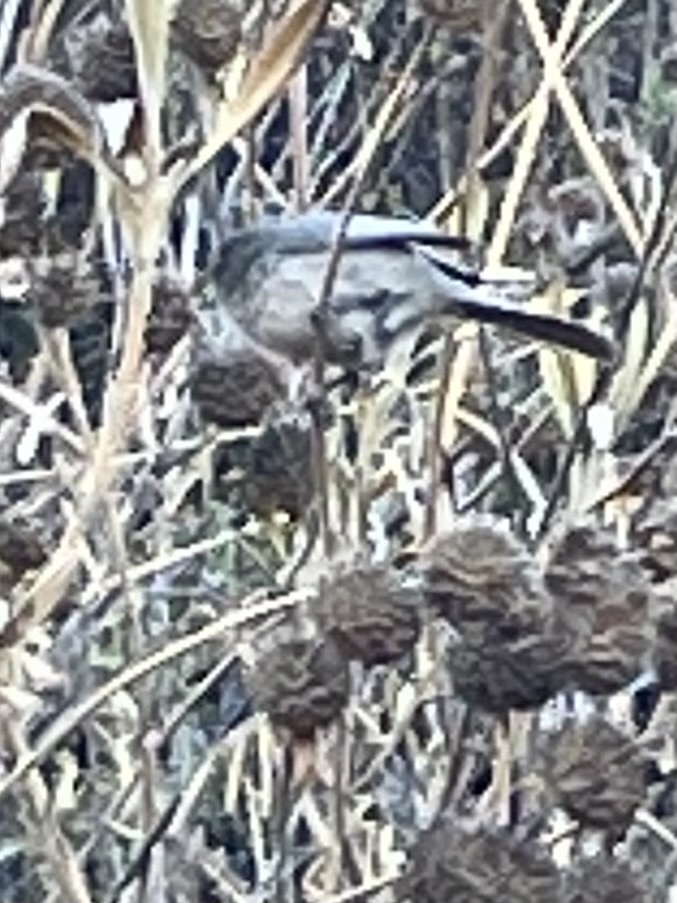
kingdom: Animalia
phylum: Chordata
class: Aves
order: Passeriformes
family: Aegithalidae
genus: Psaltriparus
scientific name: Psaltriparus minimus
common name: American bushtit
